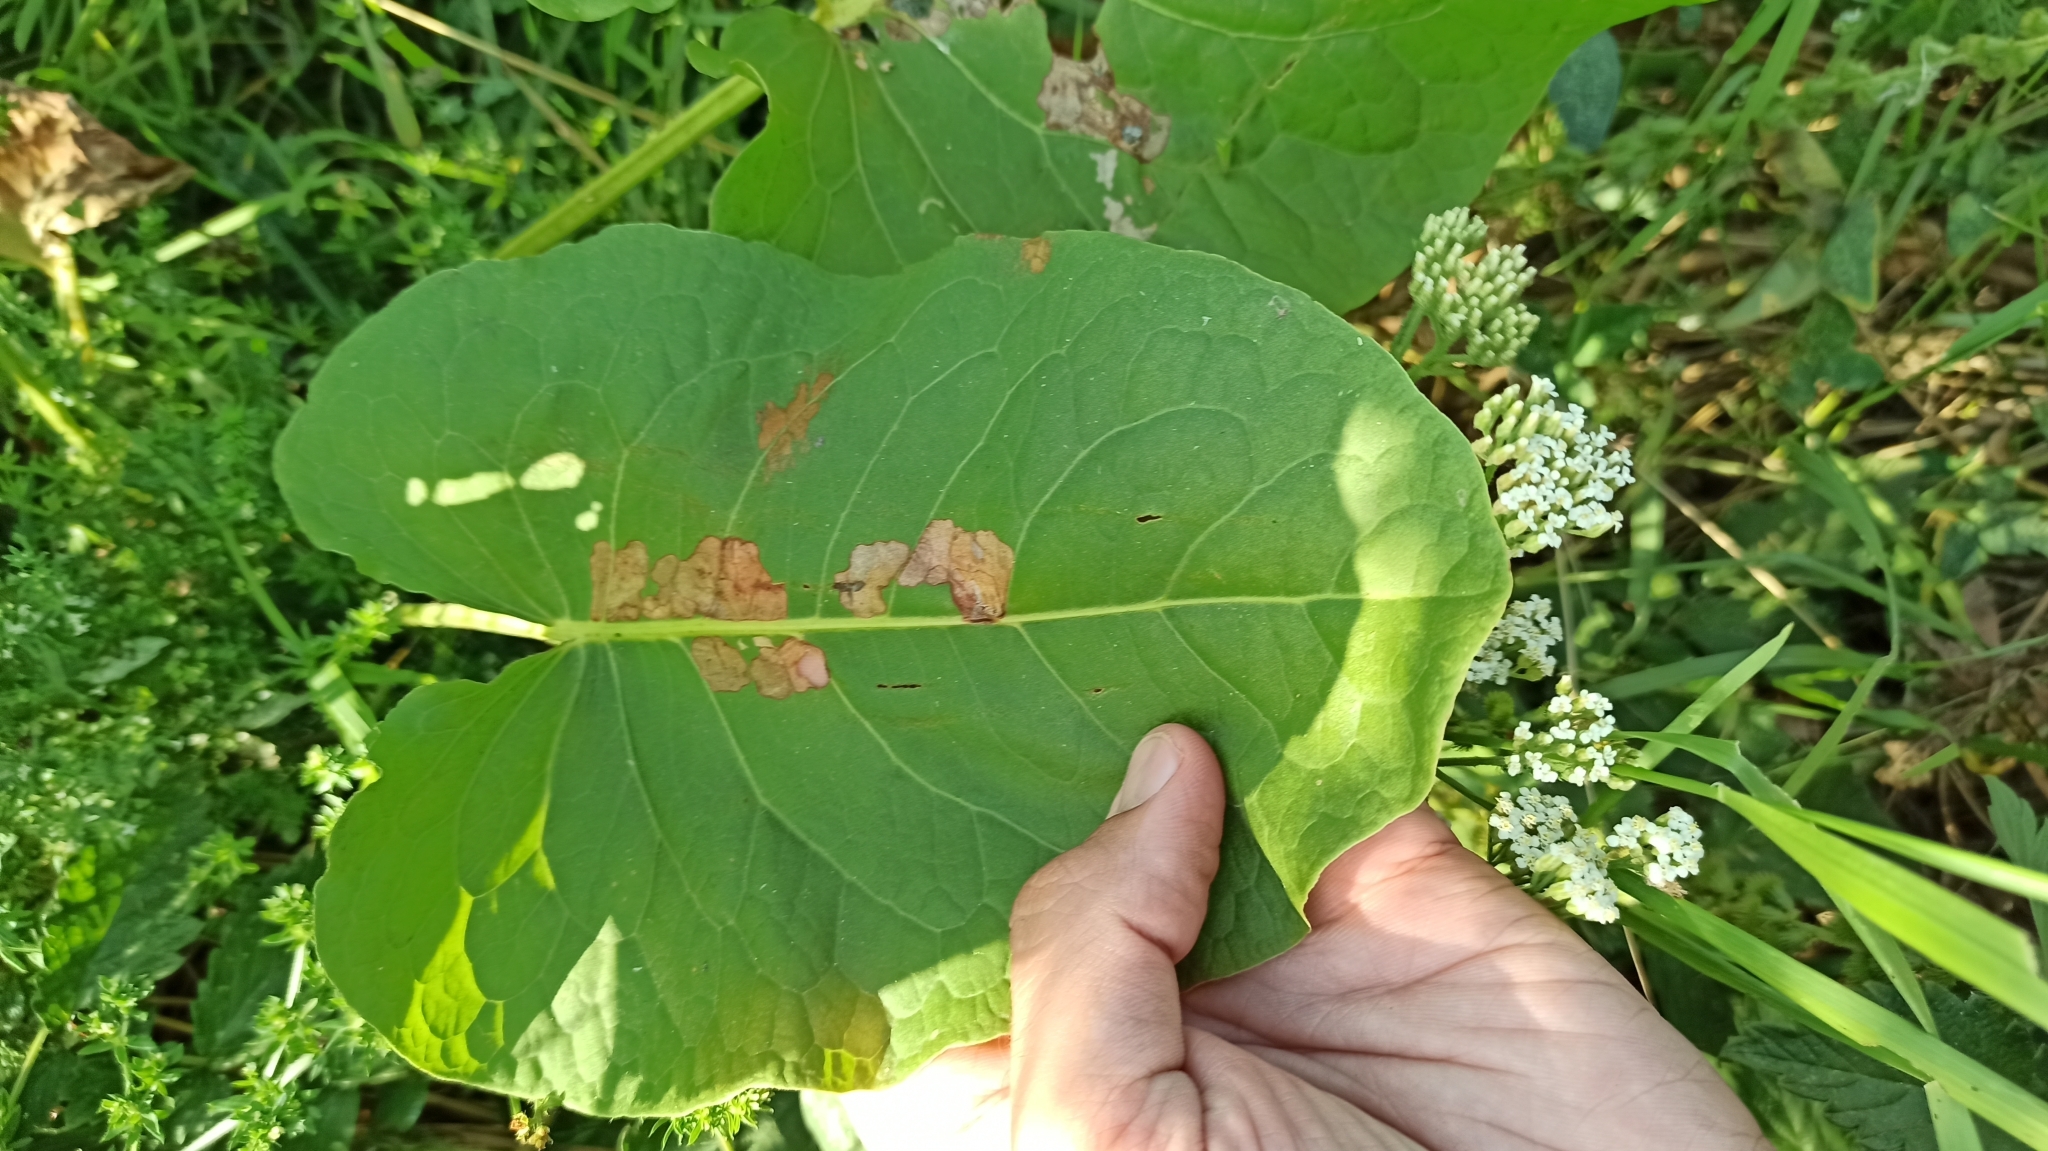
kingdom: Plantae
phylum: Tracheophyta
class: Magnoliopsida
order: Caryophyllales
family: Polygonaceae
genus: Rumex
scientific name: Rumex confertus
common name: Russian dock
